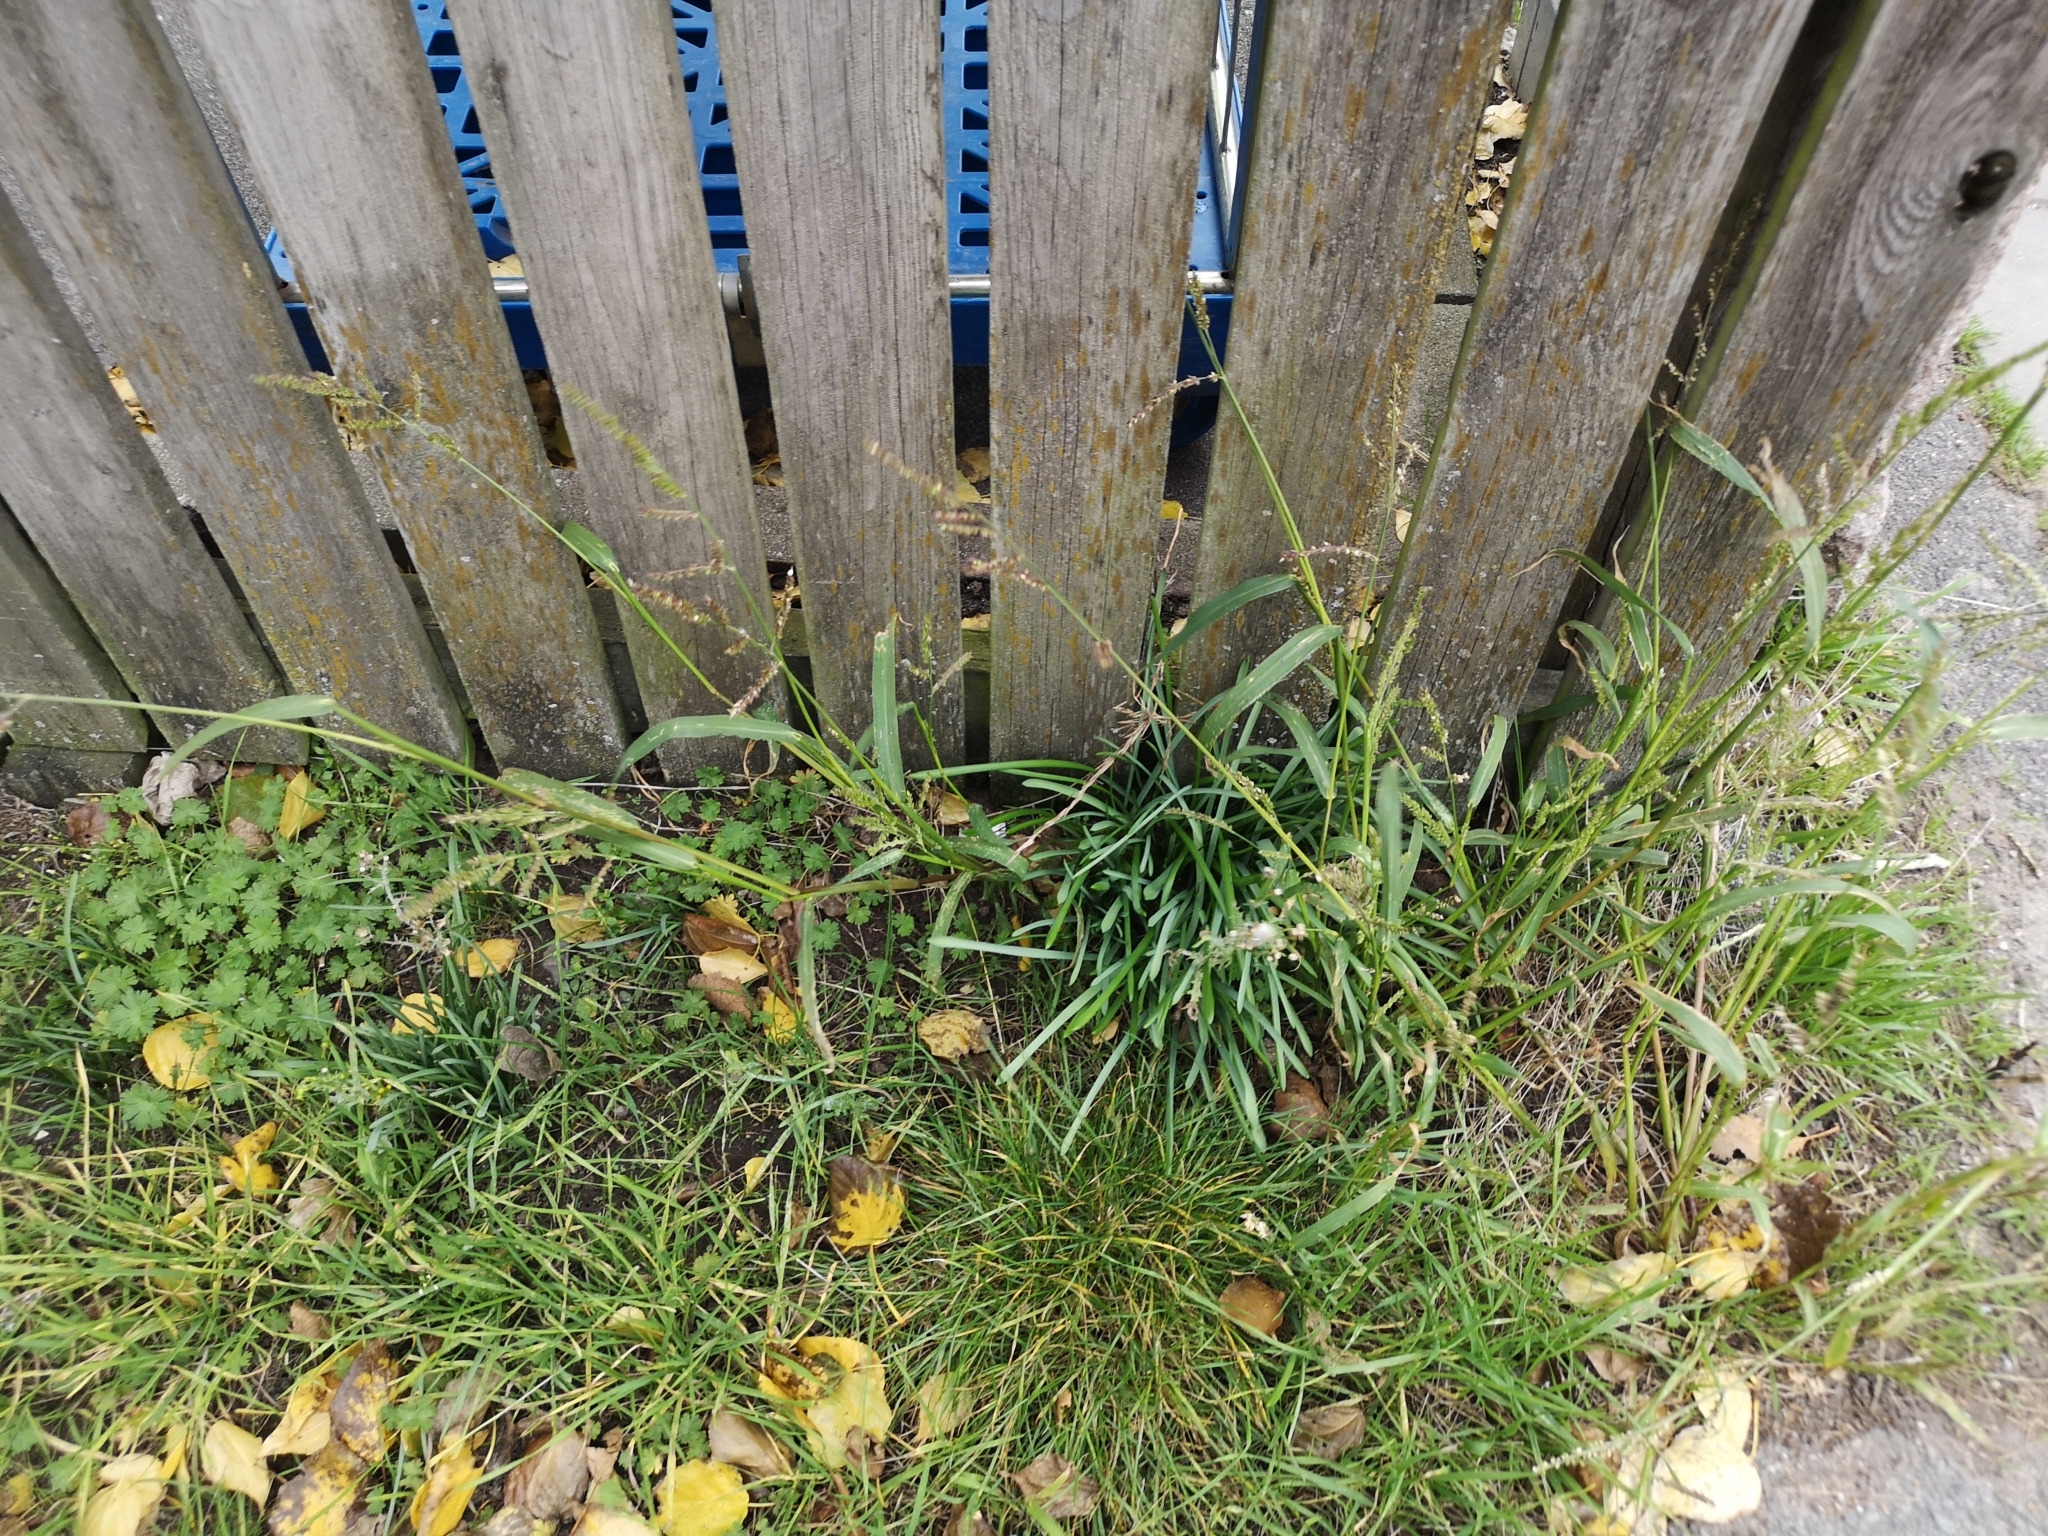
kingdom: Plantae
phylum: Tracheophyta
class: Liliopsida
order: Poales
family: Poaceae
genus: Echinochloa
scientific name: Echinochloa crus-galli
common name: Cockspur
